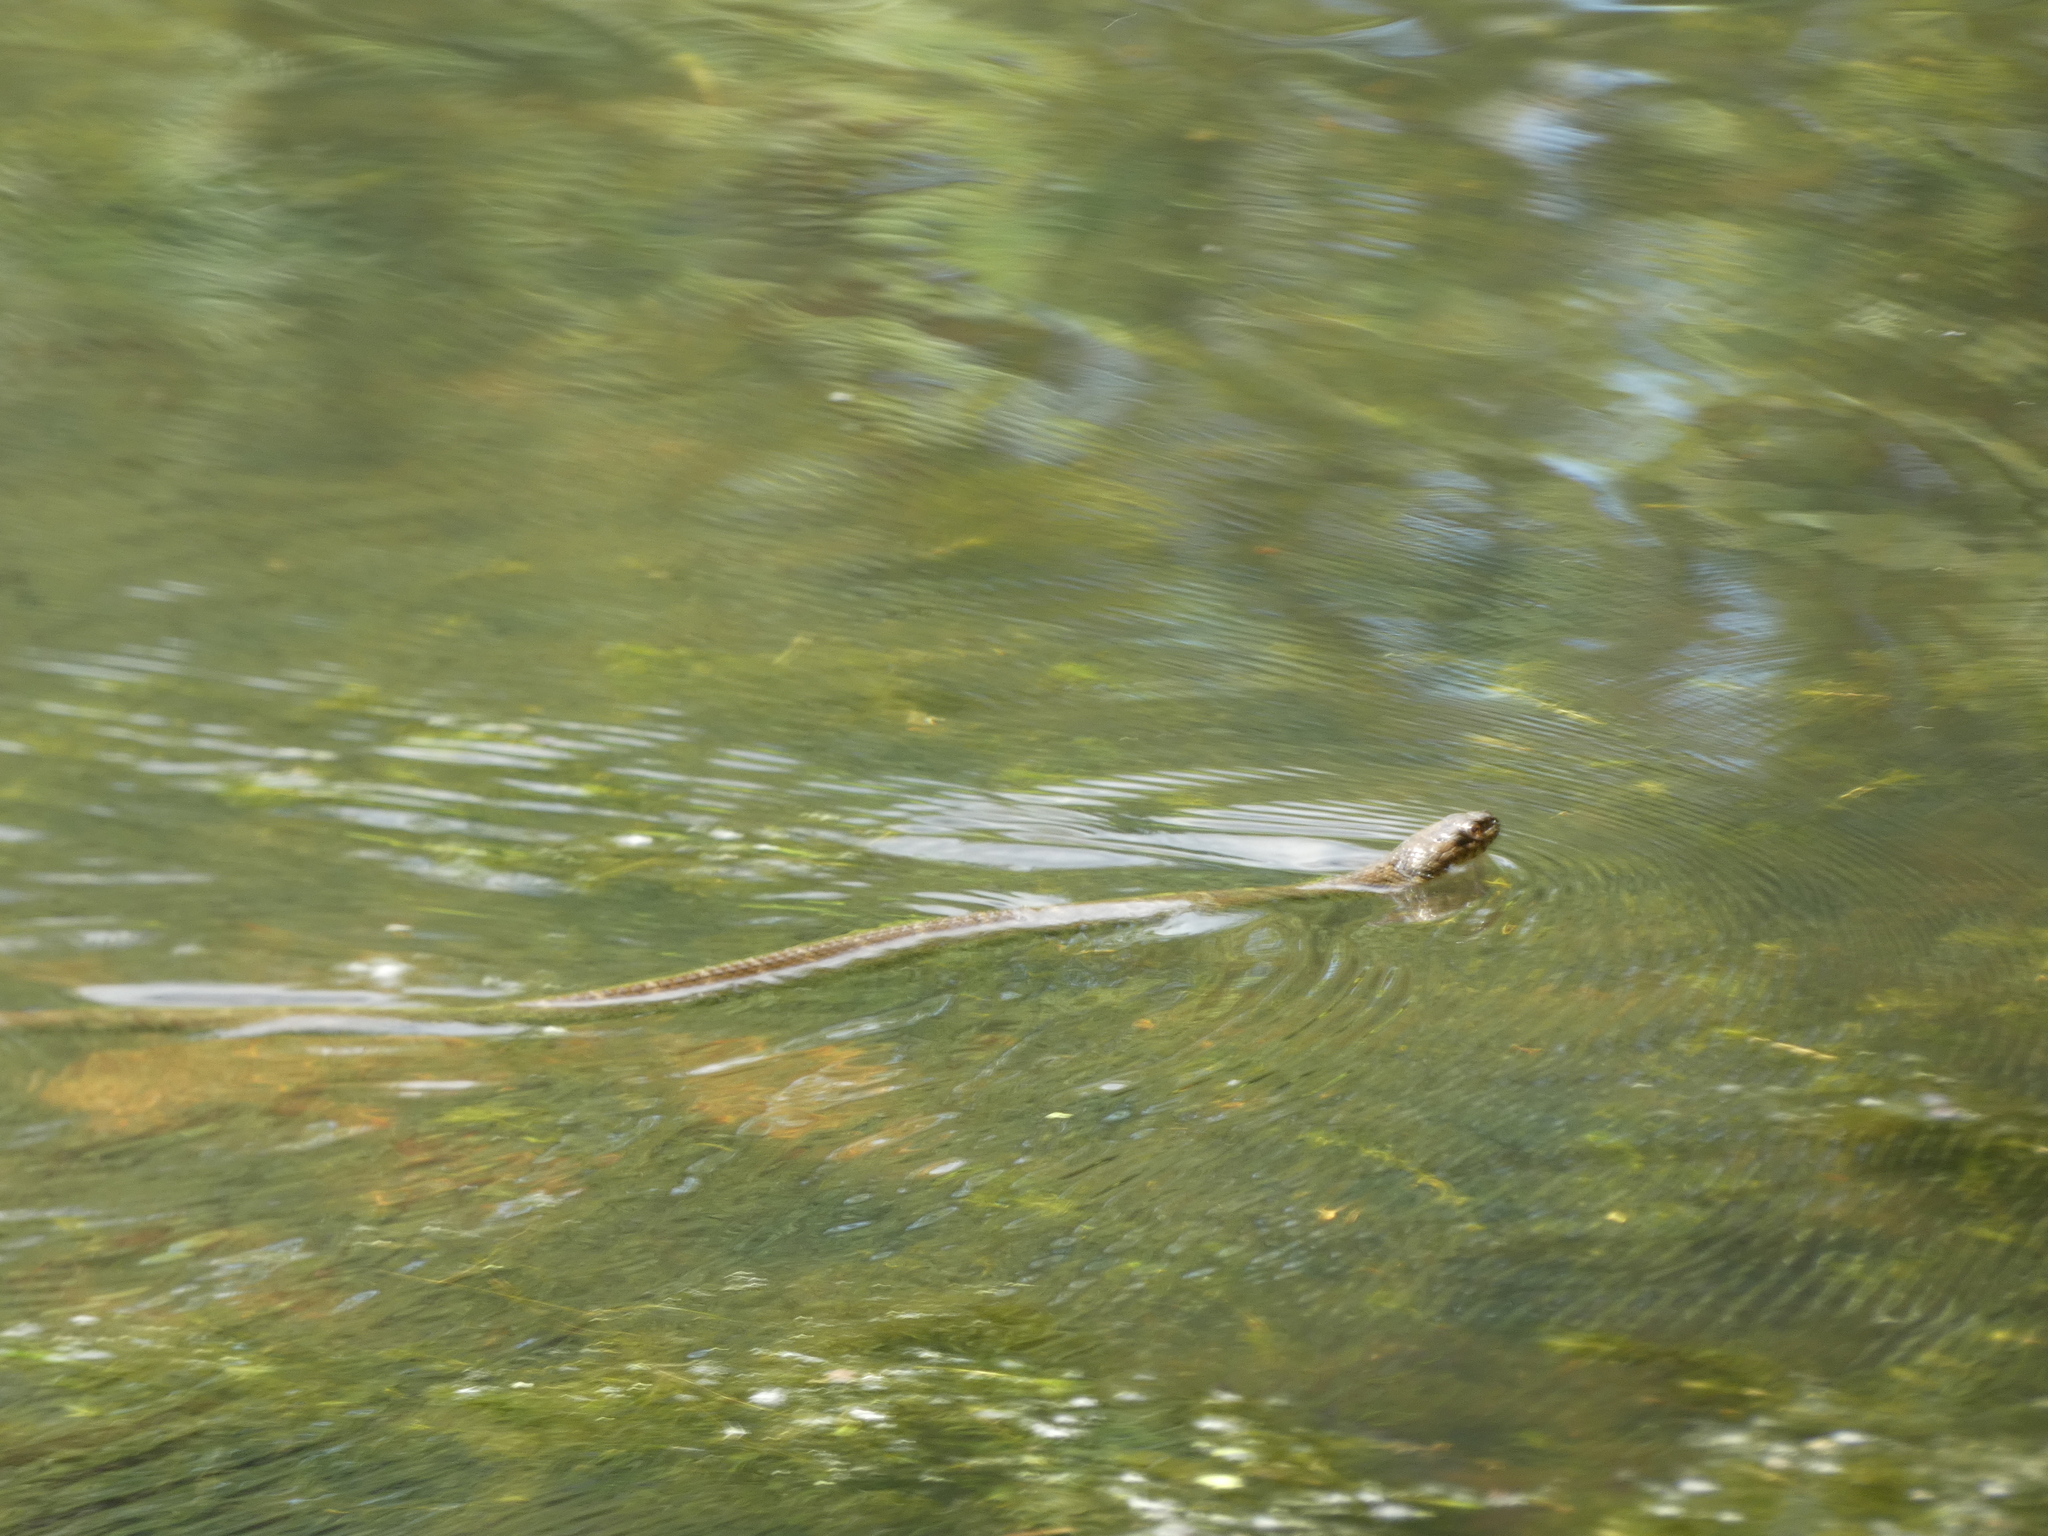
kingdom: Animalia
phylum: Chordata
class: Squamata
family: Colubridae
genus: Nerodia
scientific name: Nerodia sipedon
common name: Northern water snake
